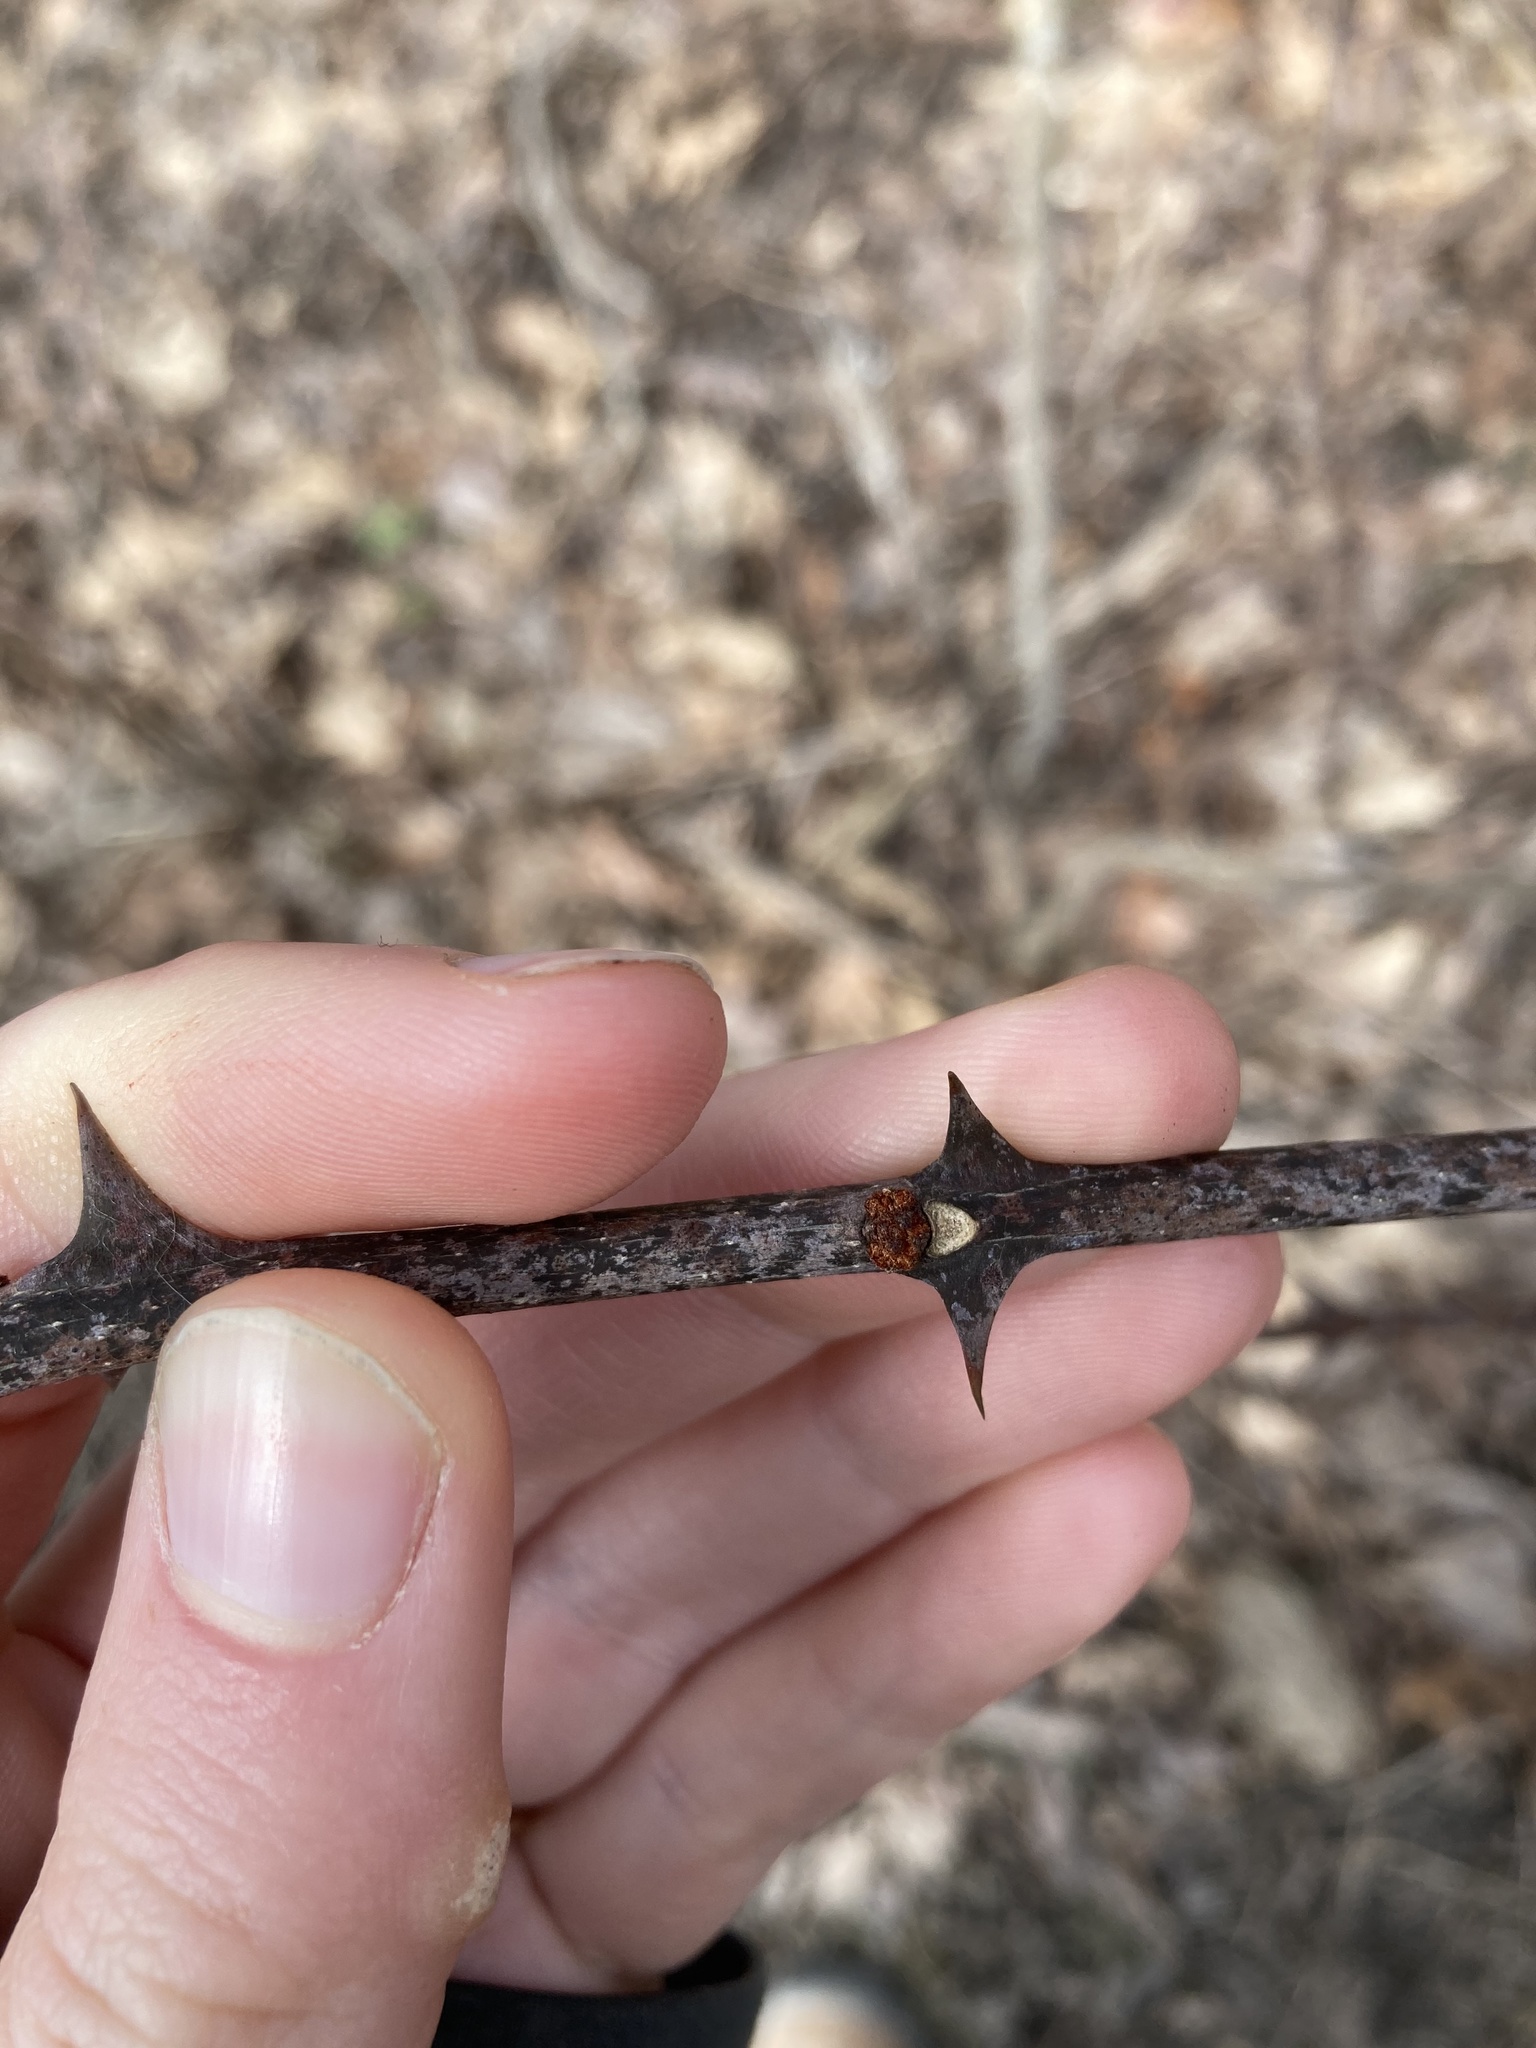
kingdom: Plantae
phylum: Tracheophyta
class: Magnoliopsida
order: Sapindales
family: Rutaceae
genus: Zanthoxylum
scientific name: Zanthoxylum americanum
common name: Northern prickly-ash
